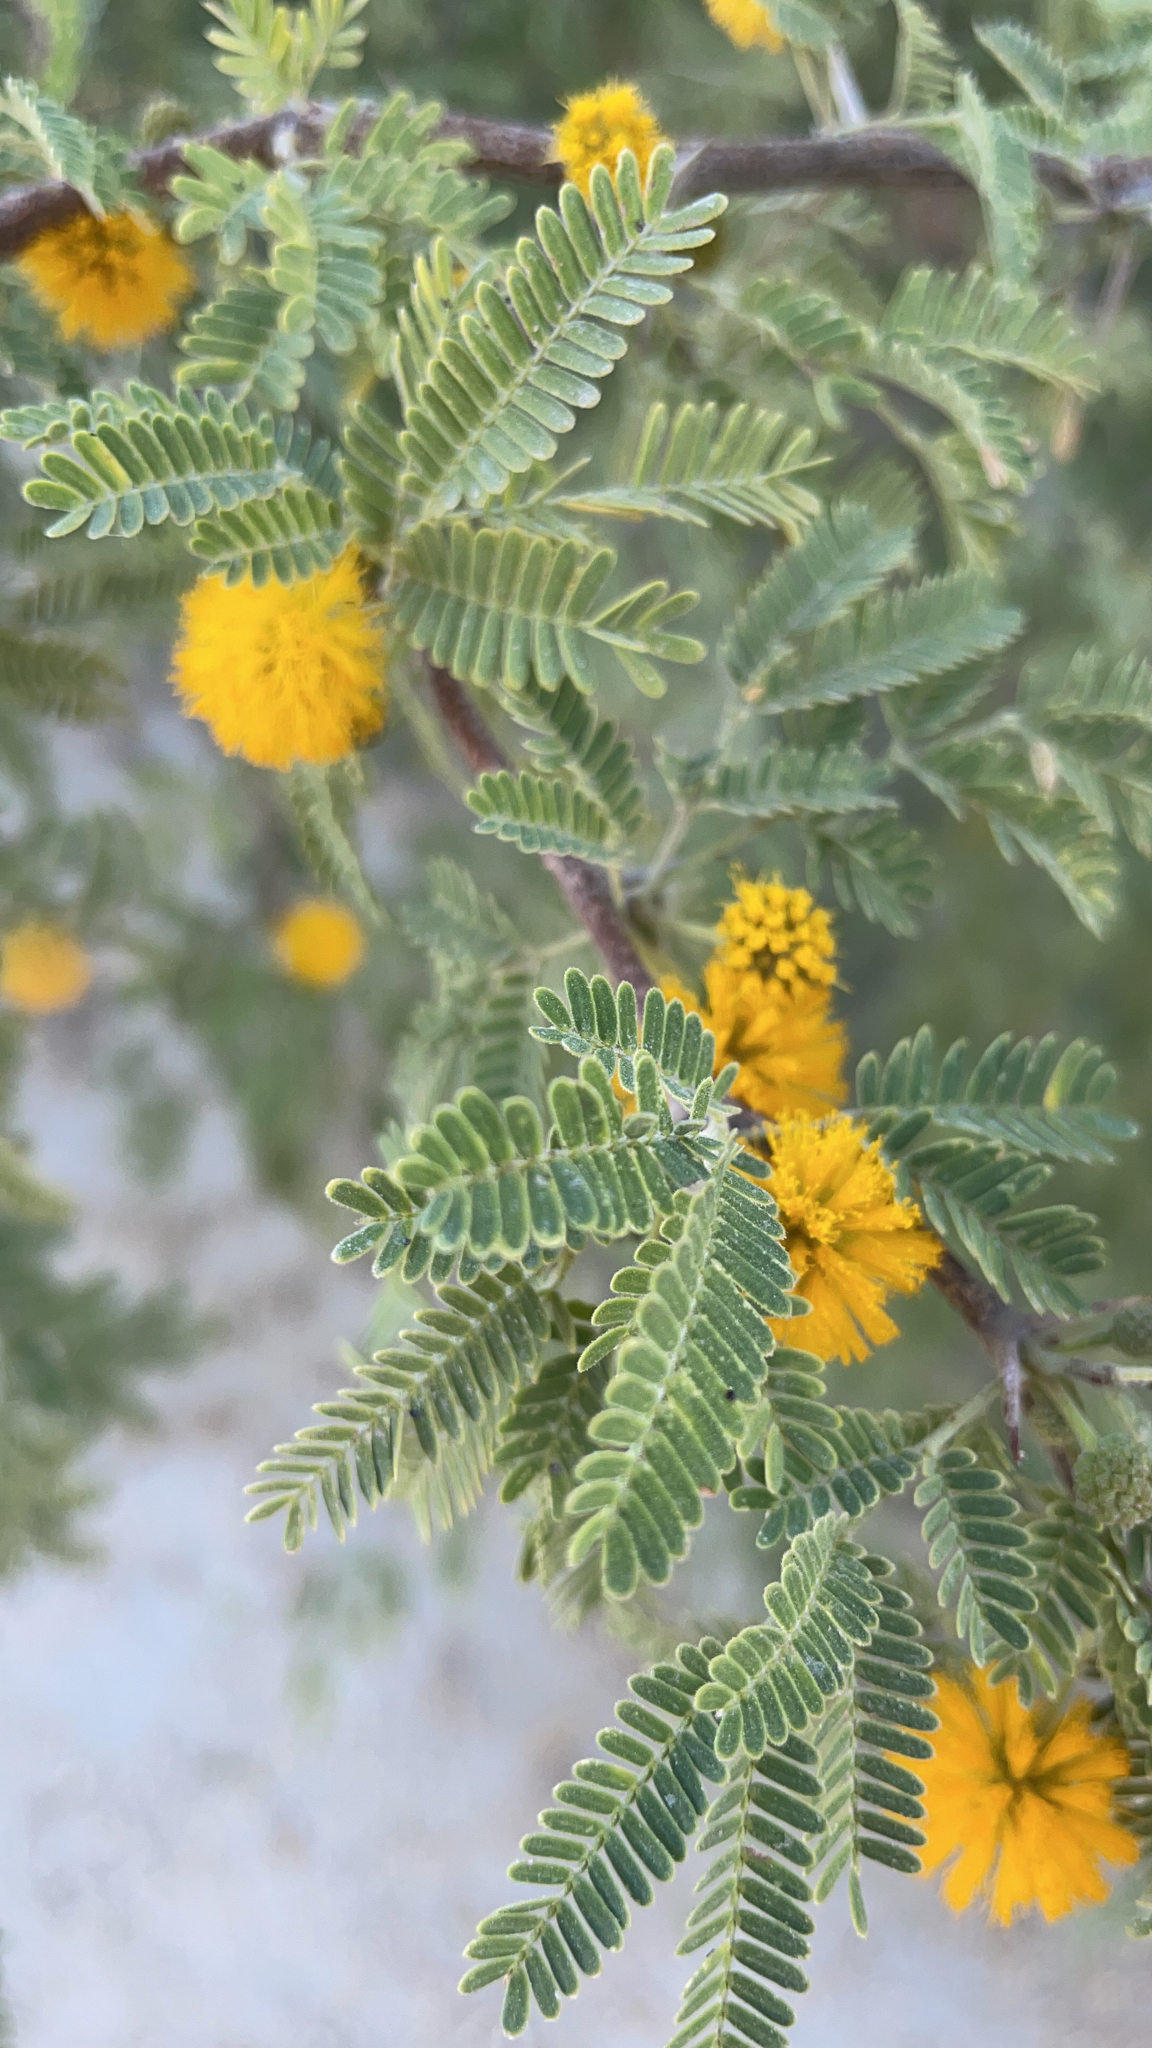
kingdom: Plantae
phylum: Tracheophyta
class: Magnoliopsida
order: Fabales
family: Fabaceae
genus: Vachellia
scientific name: Vachellia farnesiana
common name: Sweet acacia
